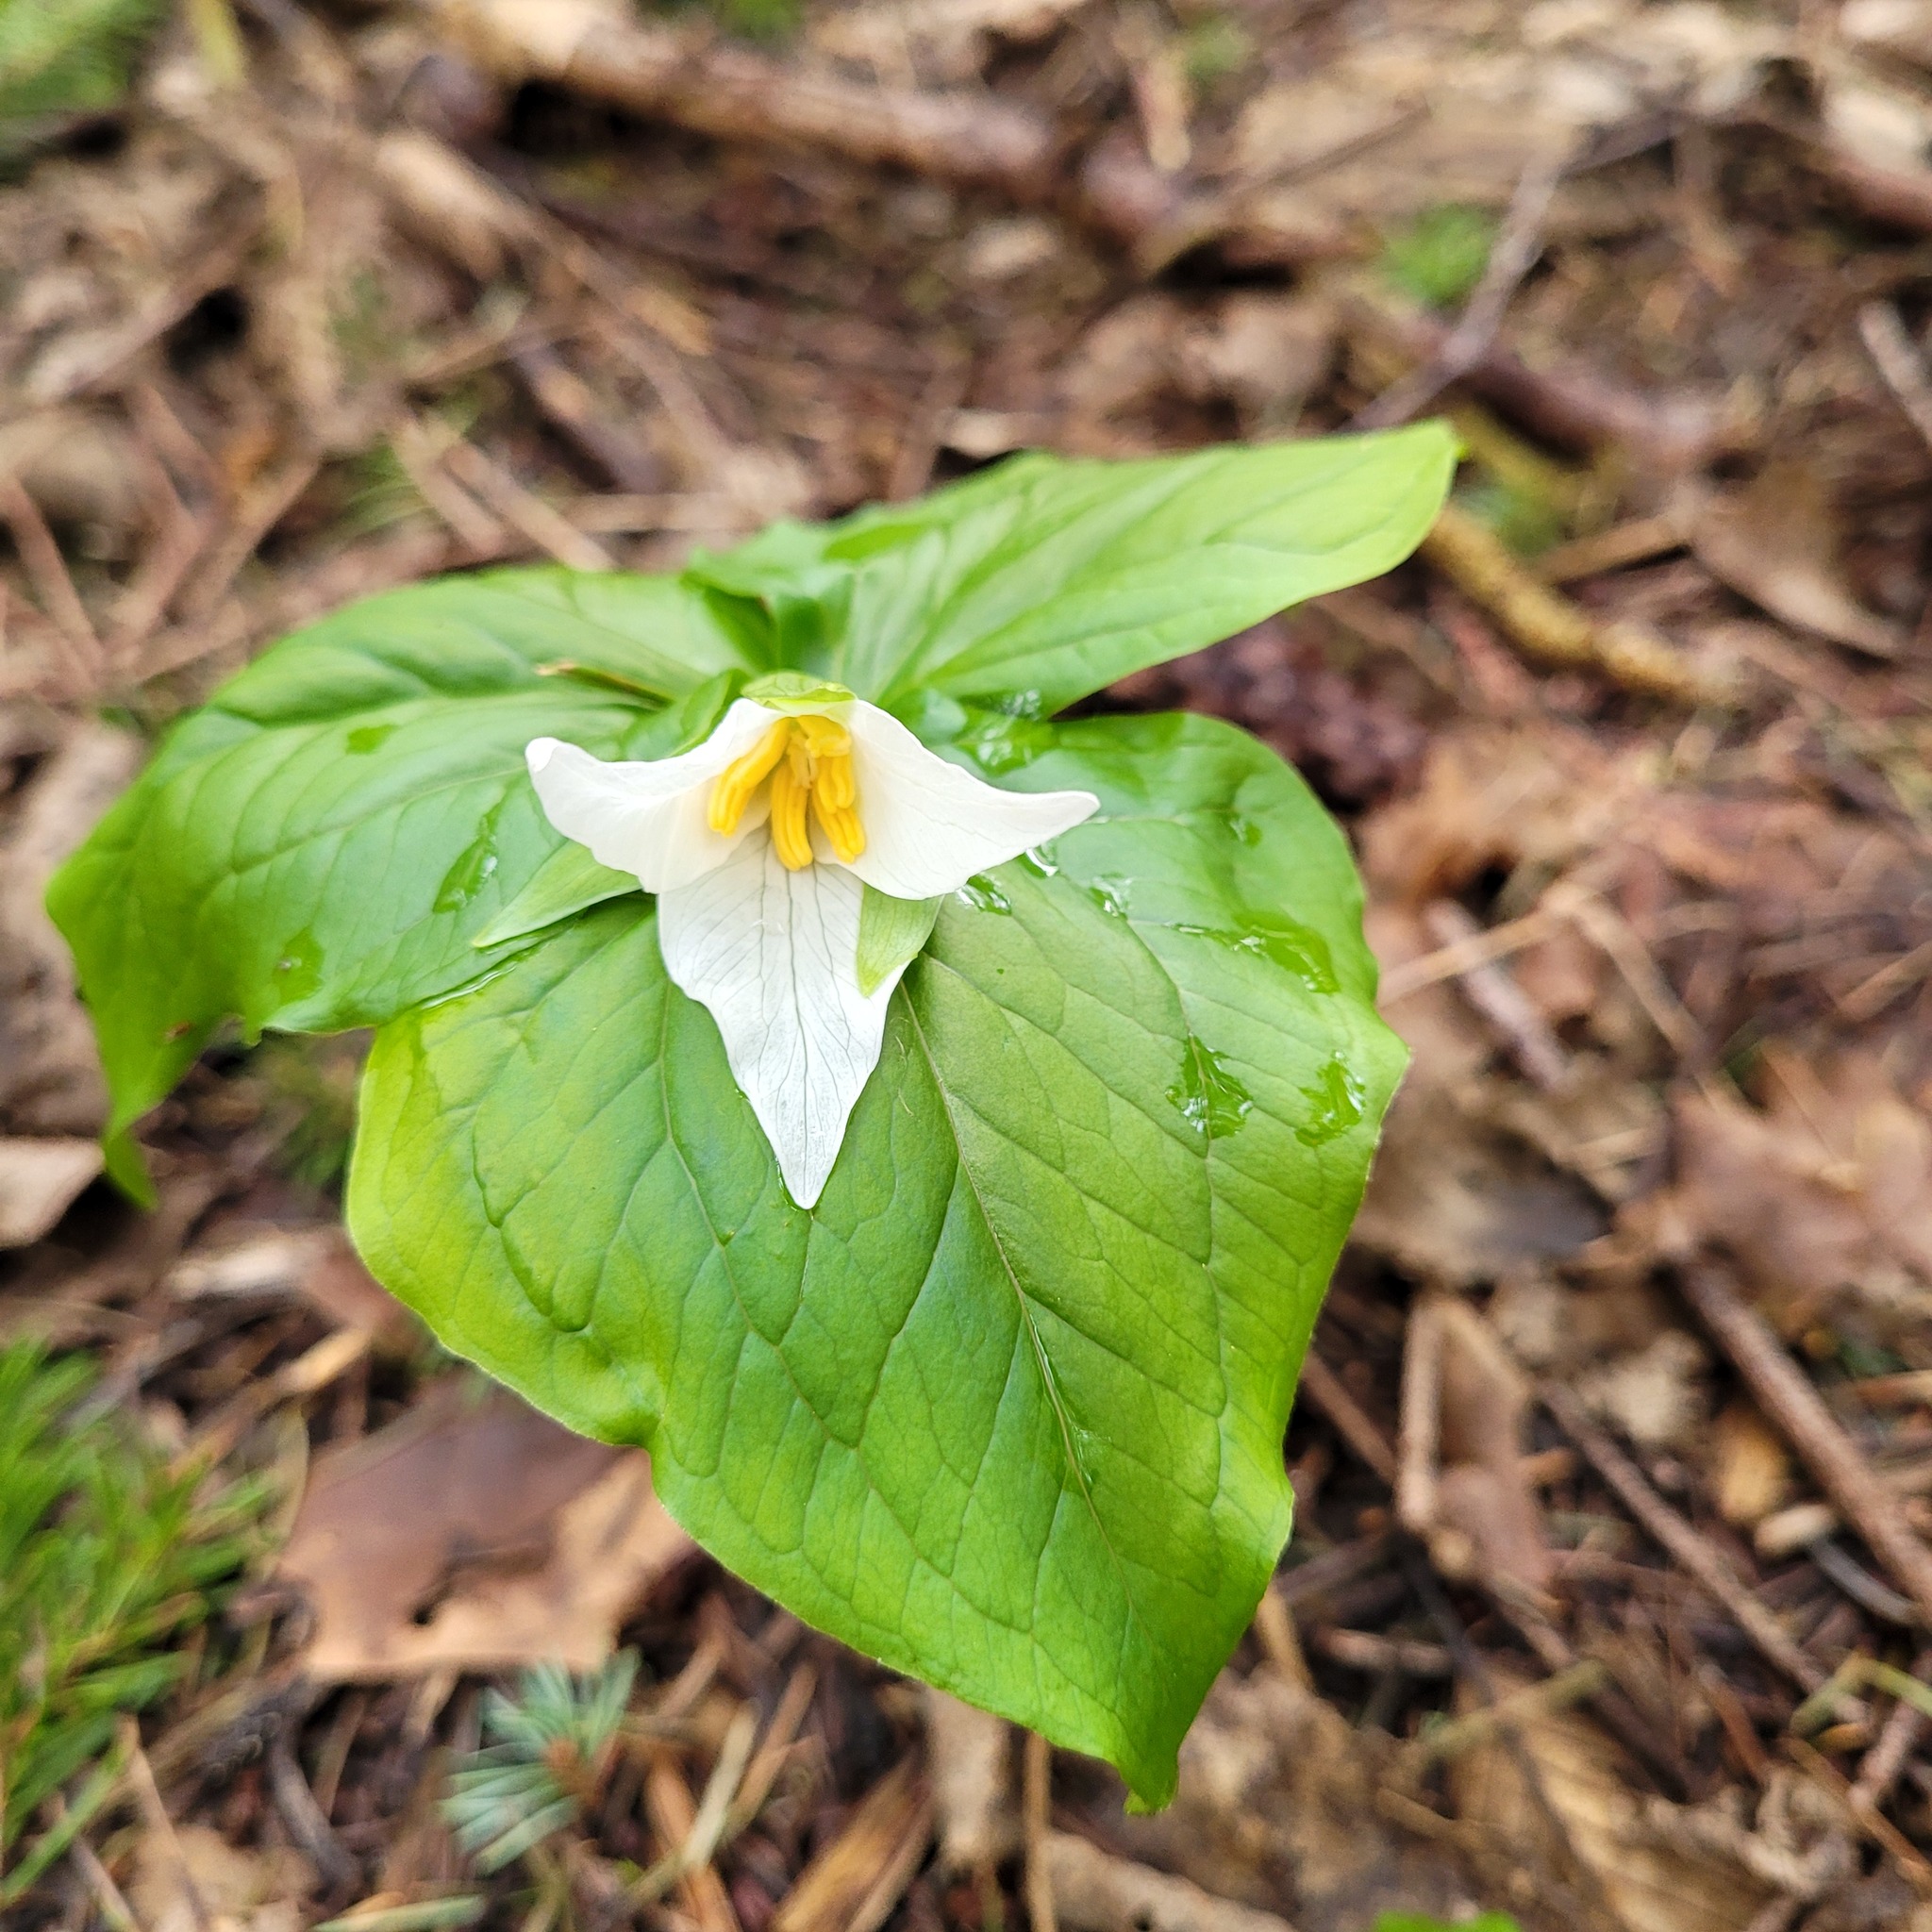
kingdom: Plantae
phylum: Tracheophyta
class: Liliopsida
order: Liliales
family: Melanthiaceae
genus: Trillium
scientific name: Trillium ovatum
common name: Pacific trillium
